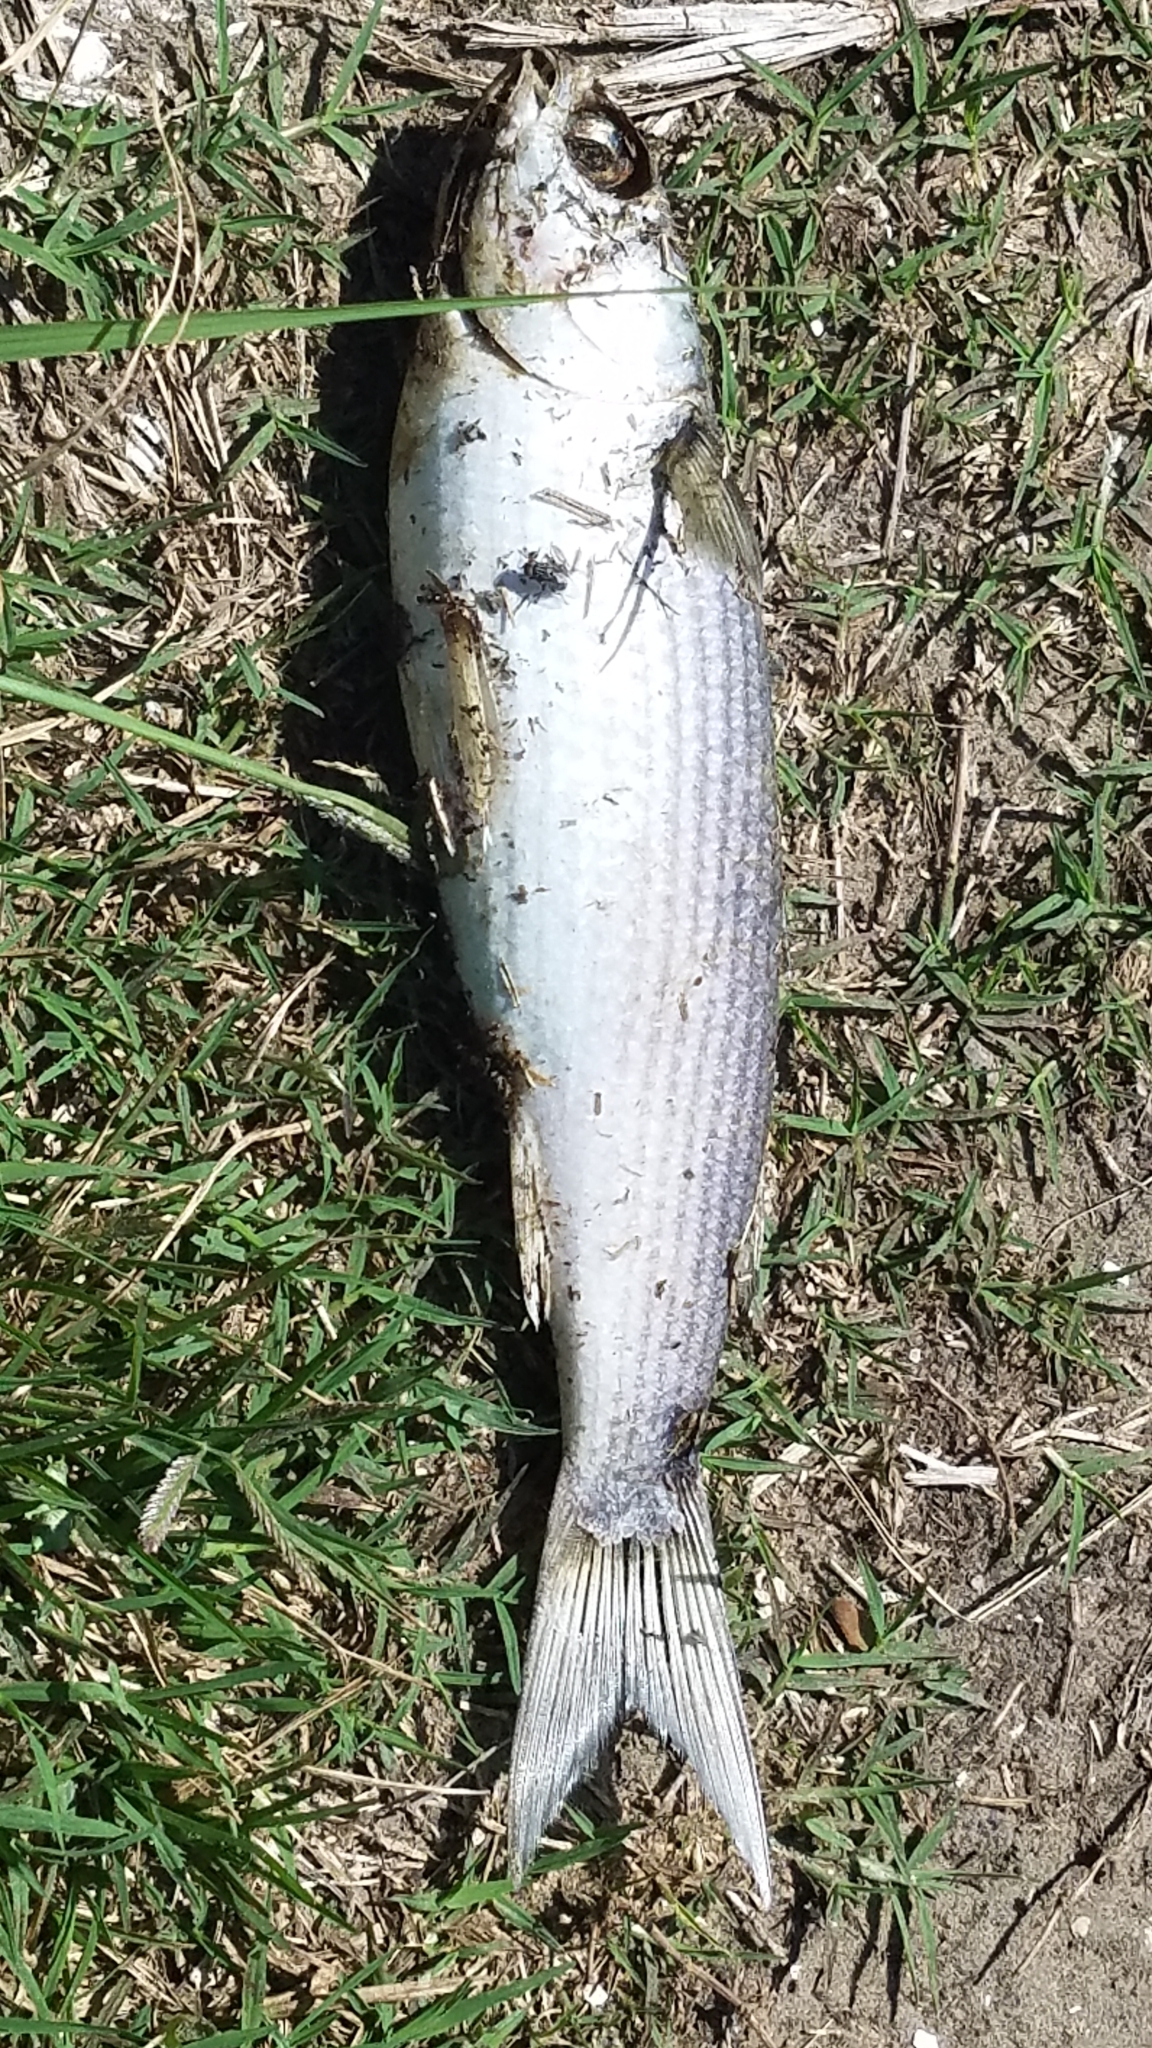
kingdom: Animalia
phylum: Chordata
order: Mugiliformes
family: Mugilidae
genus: Mugil
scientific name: Mugil cephalus
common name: Grey mullet
